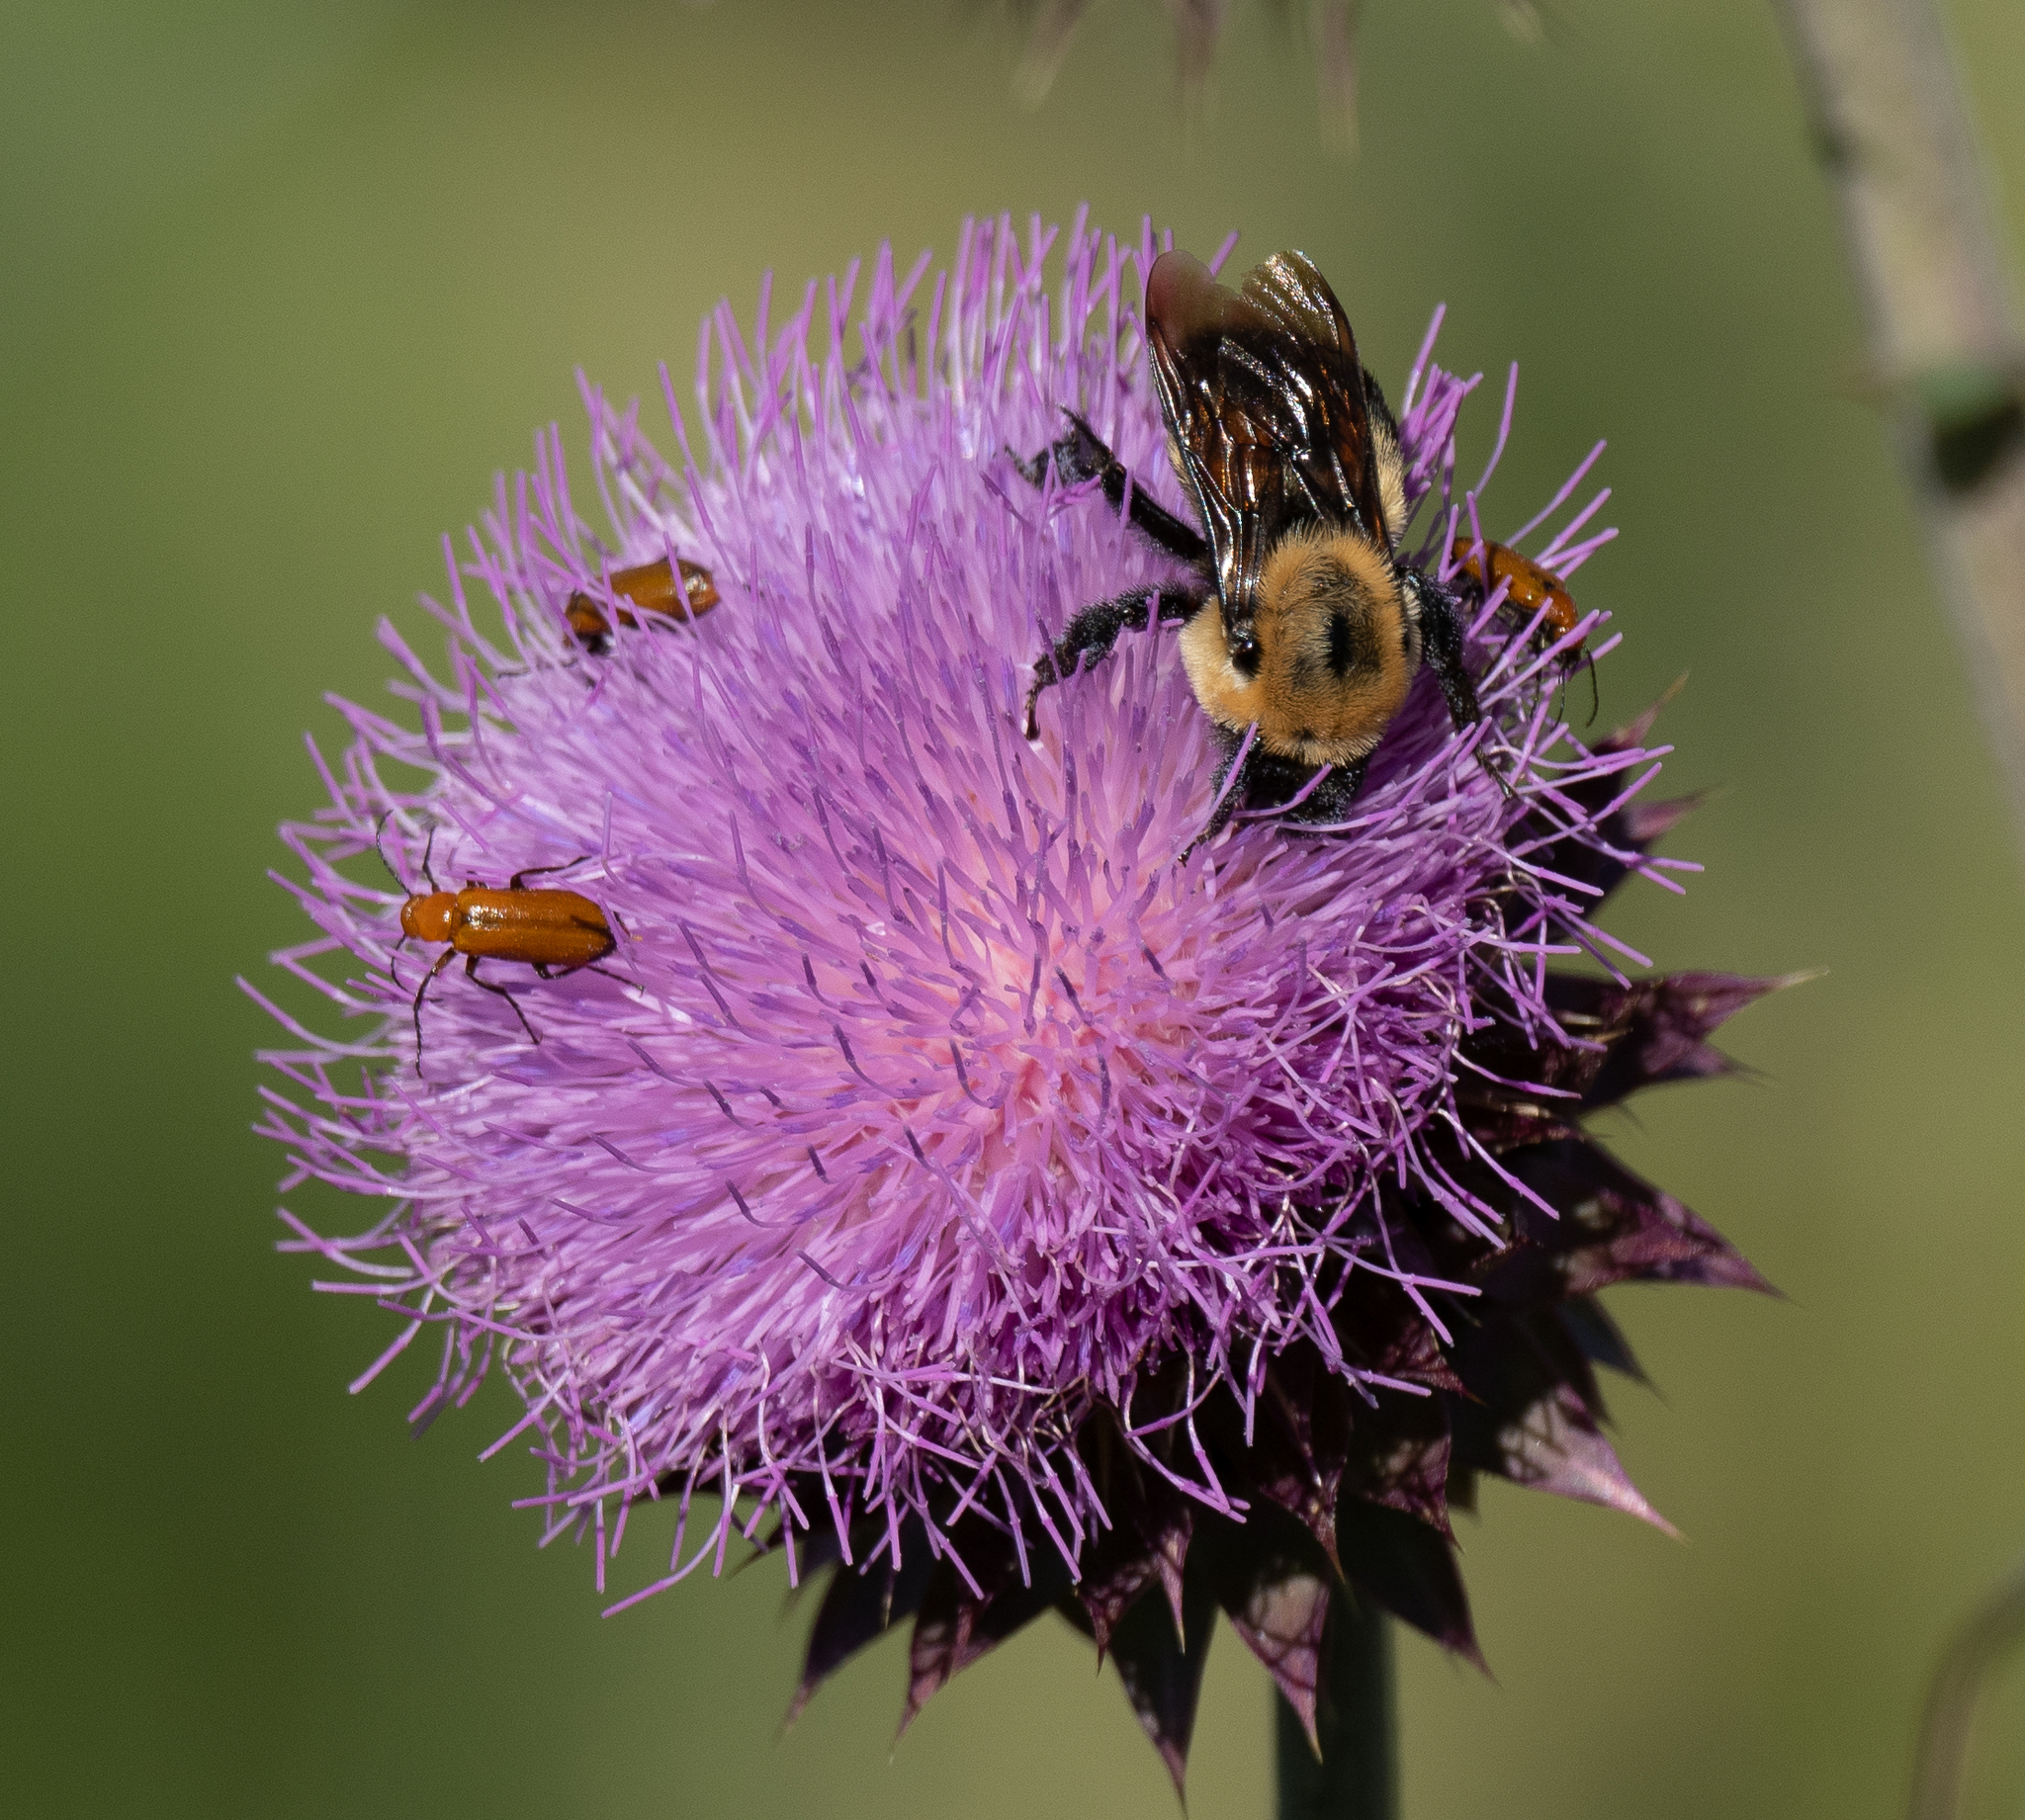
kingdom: Animalia
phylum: Arthropoda
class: Insecta
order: Hymenoptera
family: Apidae
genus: Bombus
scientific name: Bombus griseocollis
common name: Brown-belted bumble bee
